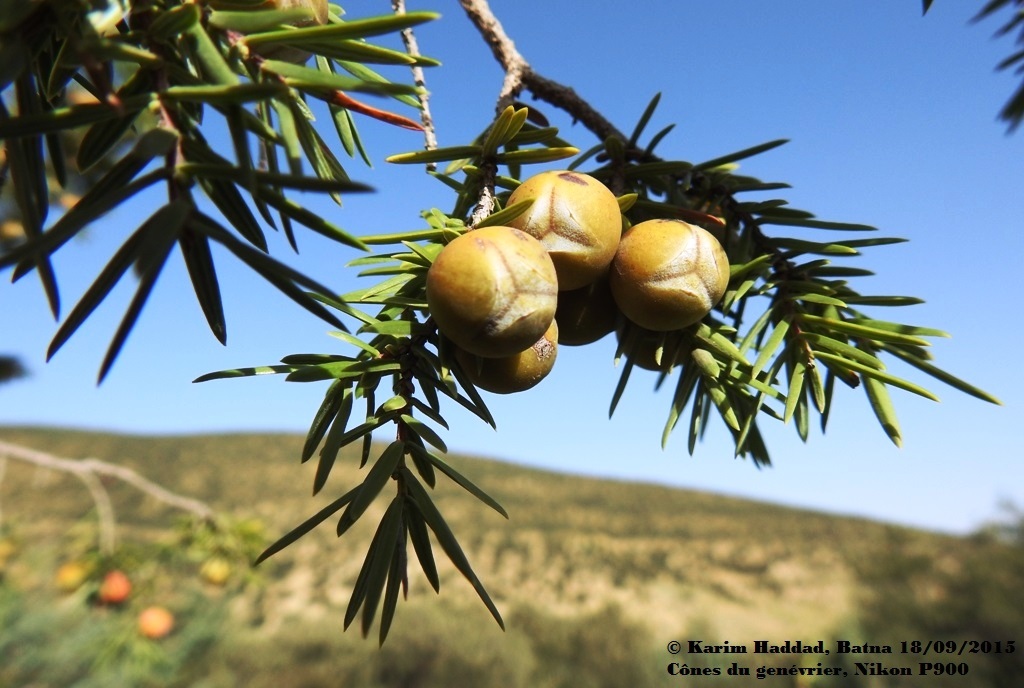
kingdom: Plantae
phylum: Tracheophyta
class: Pinopsida
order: Pinales
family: Cupressaceae
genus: Juniperus
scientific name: Juniperus oxycedrus
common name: Prickly juniper
